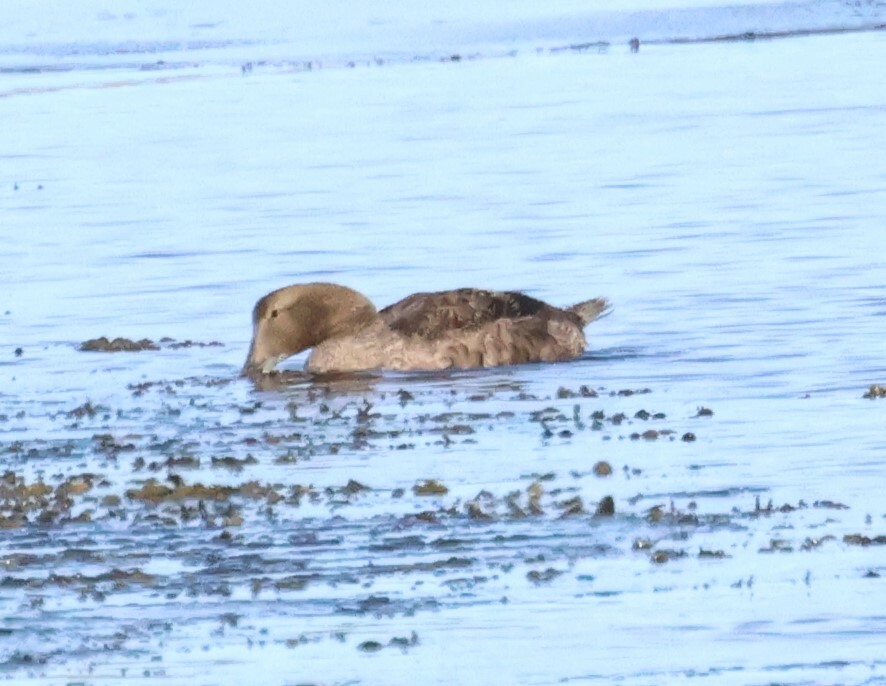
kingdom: Animalia
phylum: Chordata
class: Aves
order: Anseriformes
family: Anatidae
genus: Somateria
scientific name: Somateria mollissima
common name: Common eider
